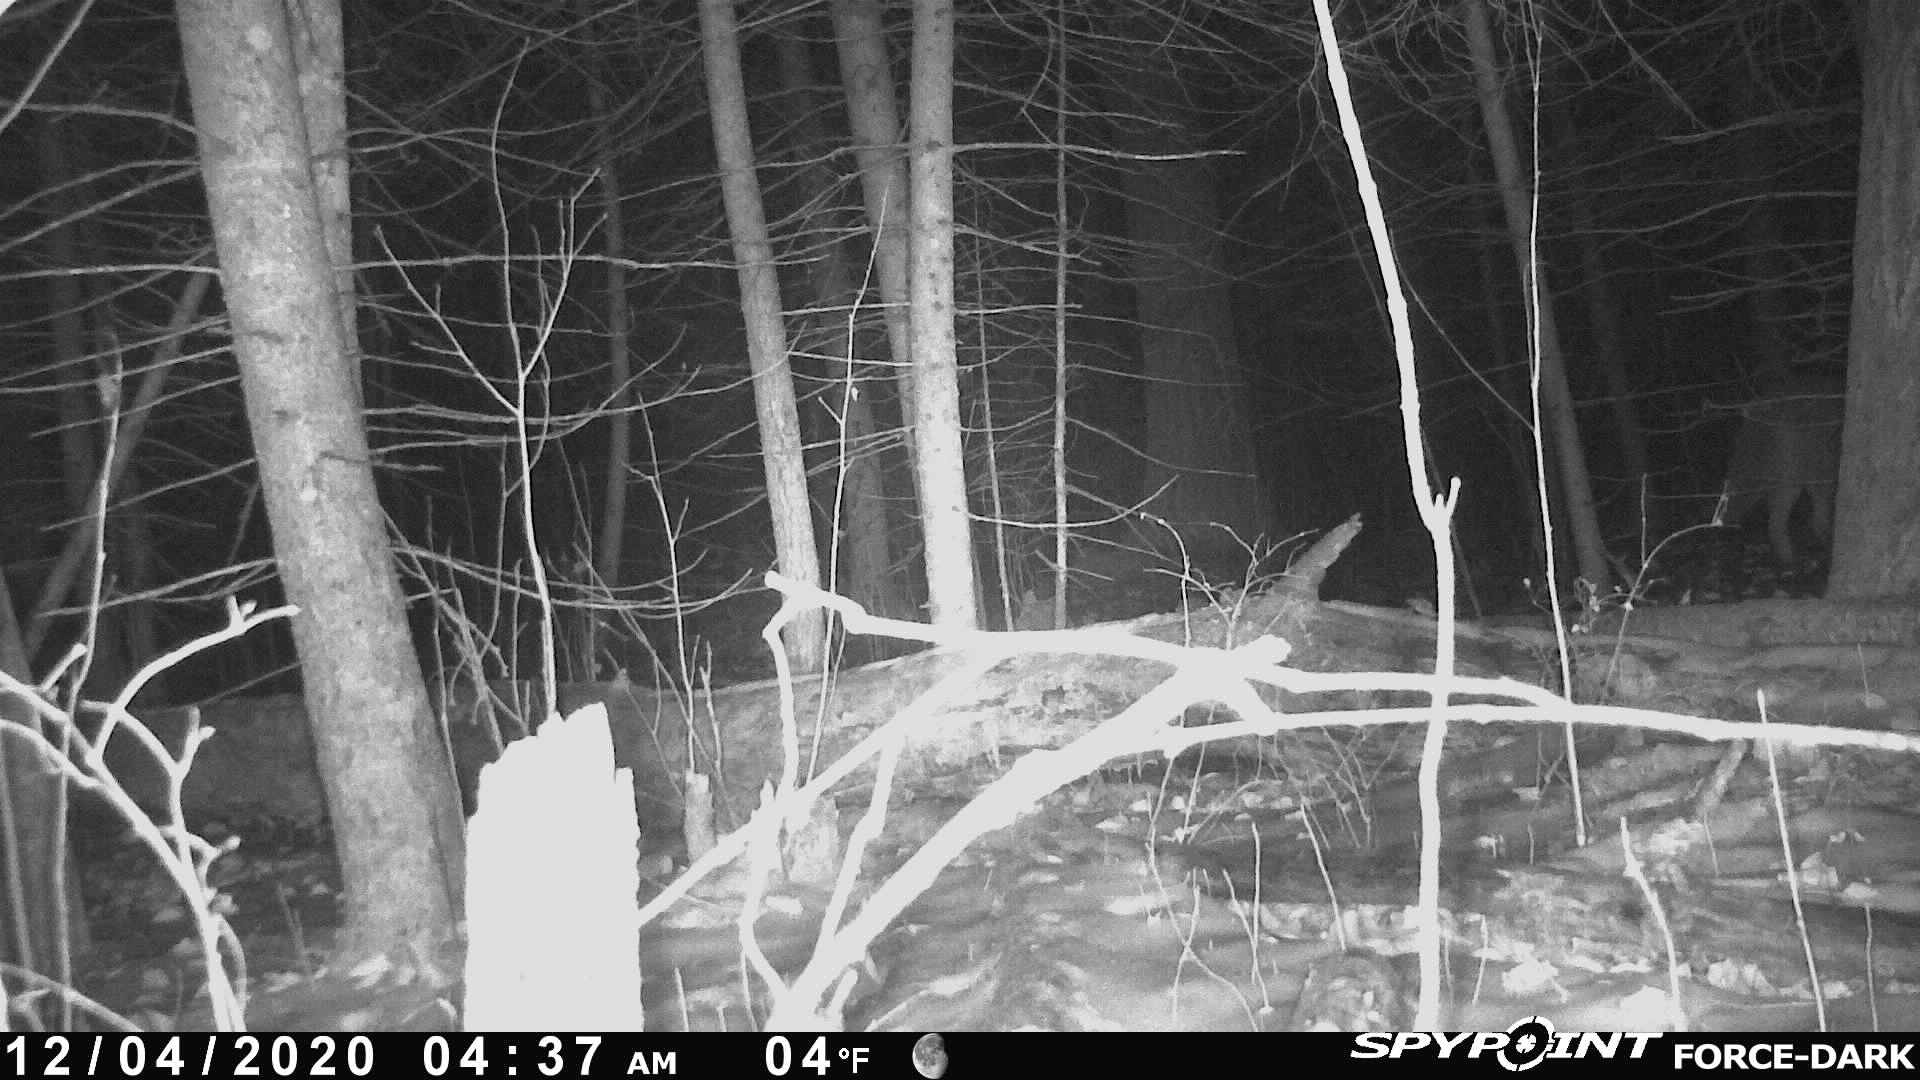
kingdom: Animalia
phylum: Chordata
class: Mammalia
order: Carnivora
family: Canidae
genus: Canis
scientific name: Canis latrans
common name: Coyote
